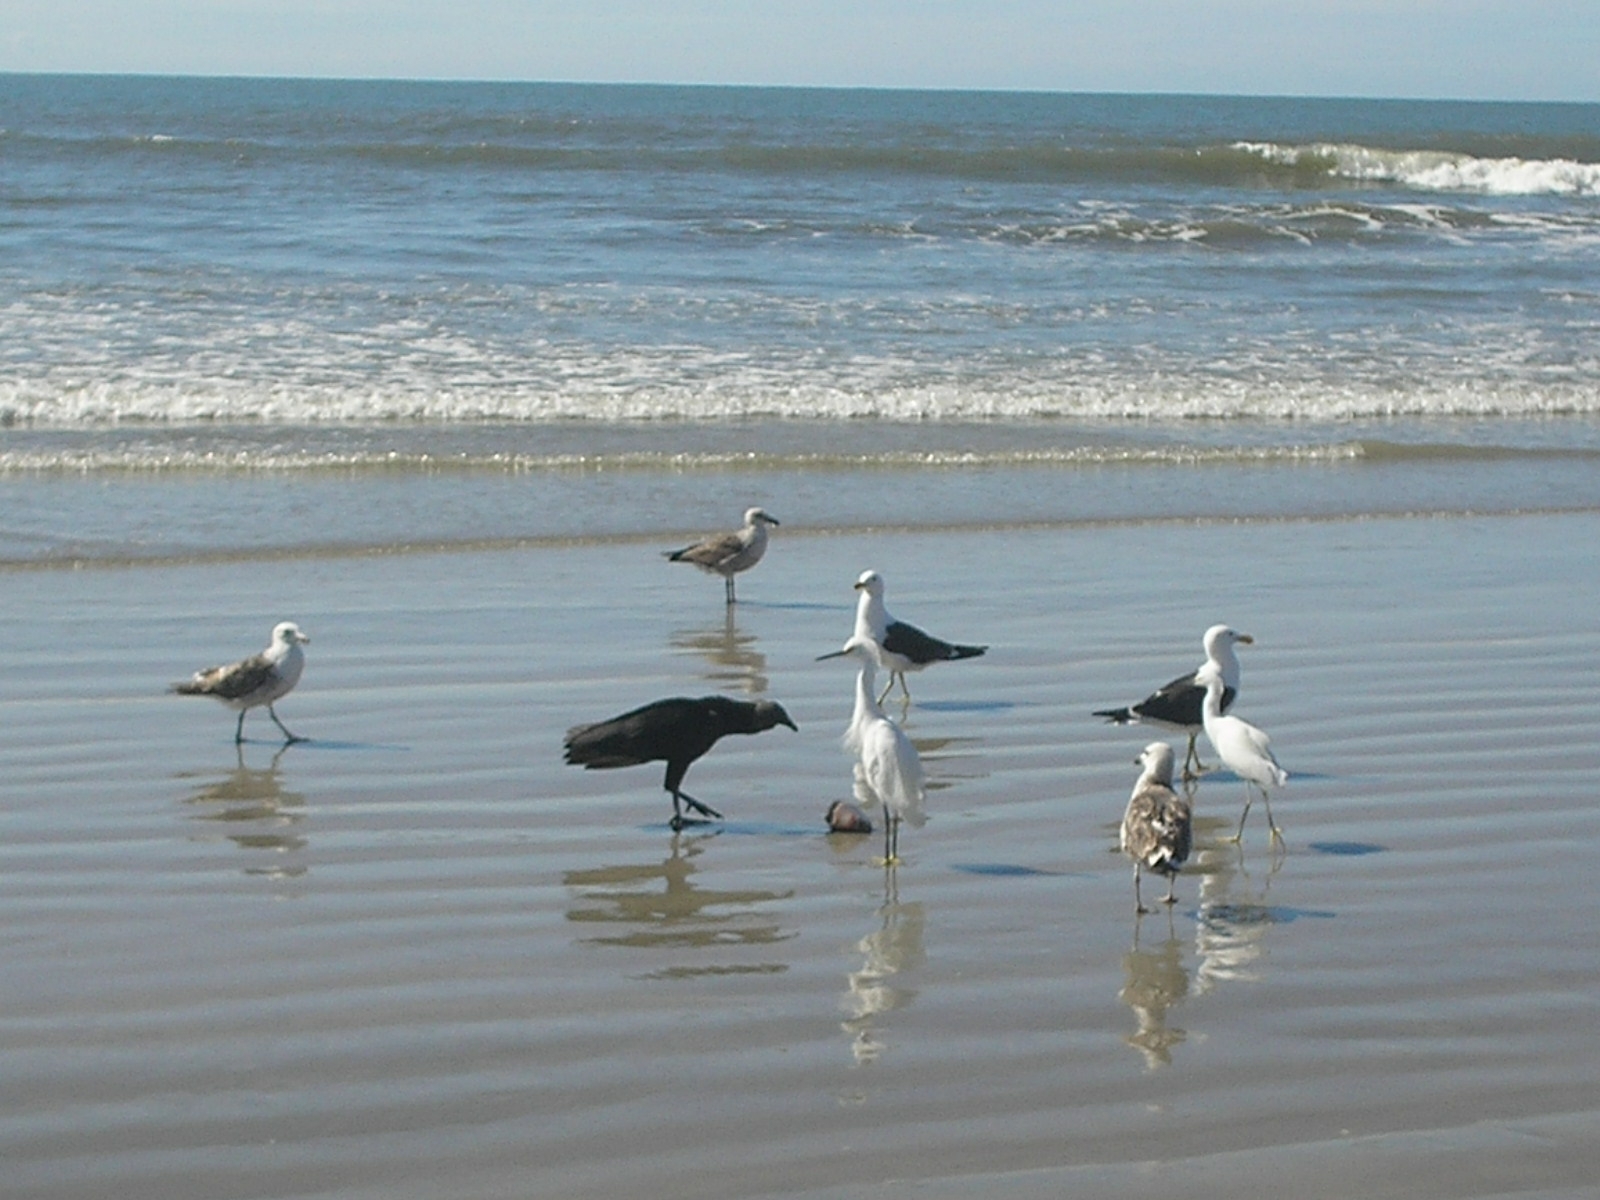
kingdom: Animalia
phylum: Chordata
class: Aves
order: Charadriiformes
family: Laridae
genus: Larus
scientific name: Larus dominicanus
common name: Kelp gull
